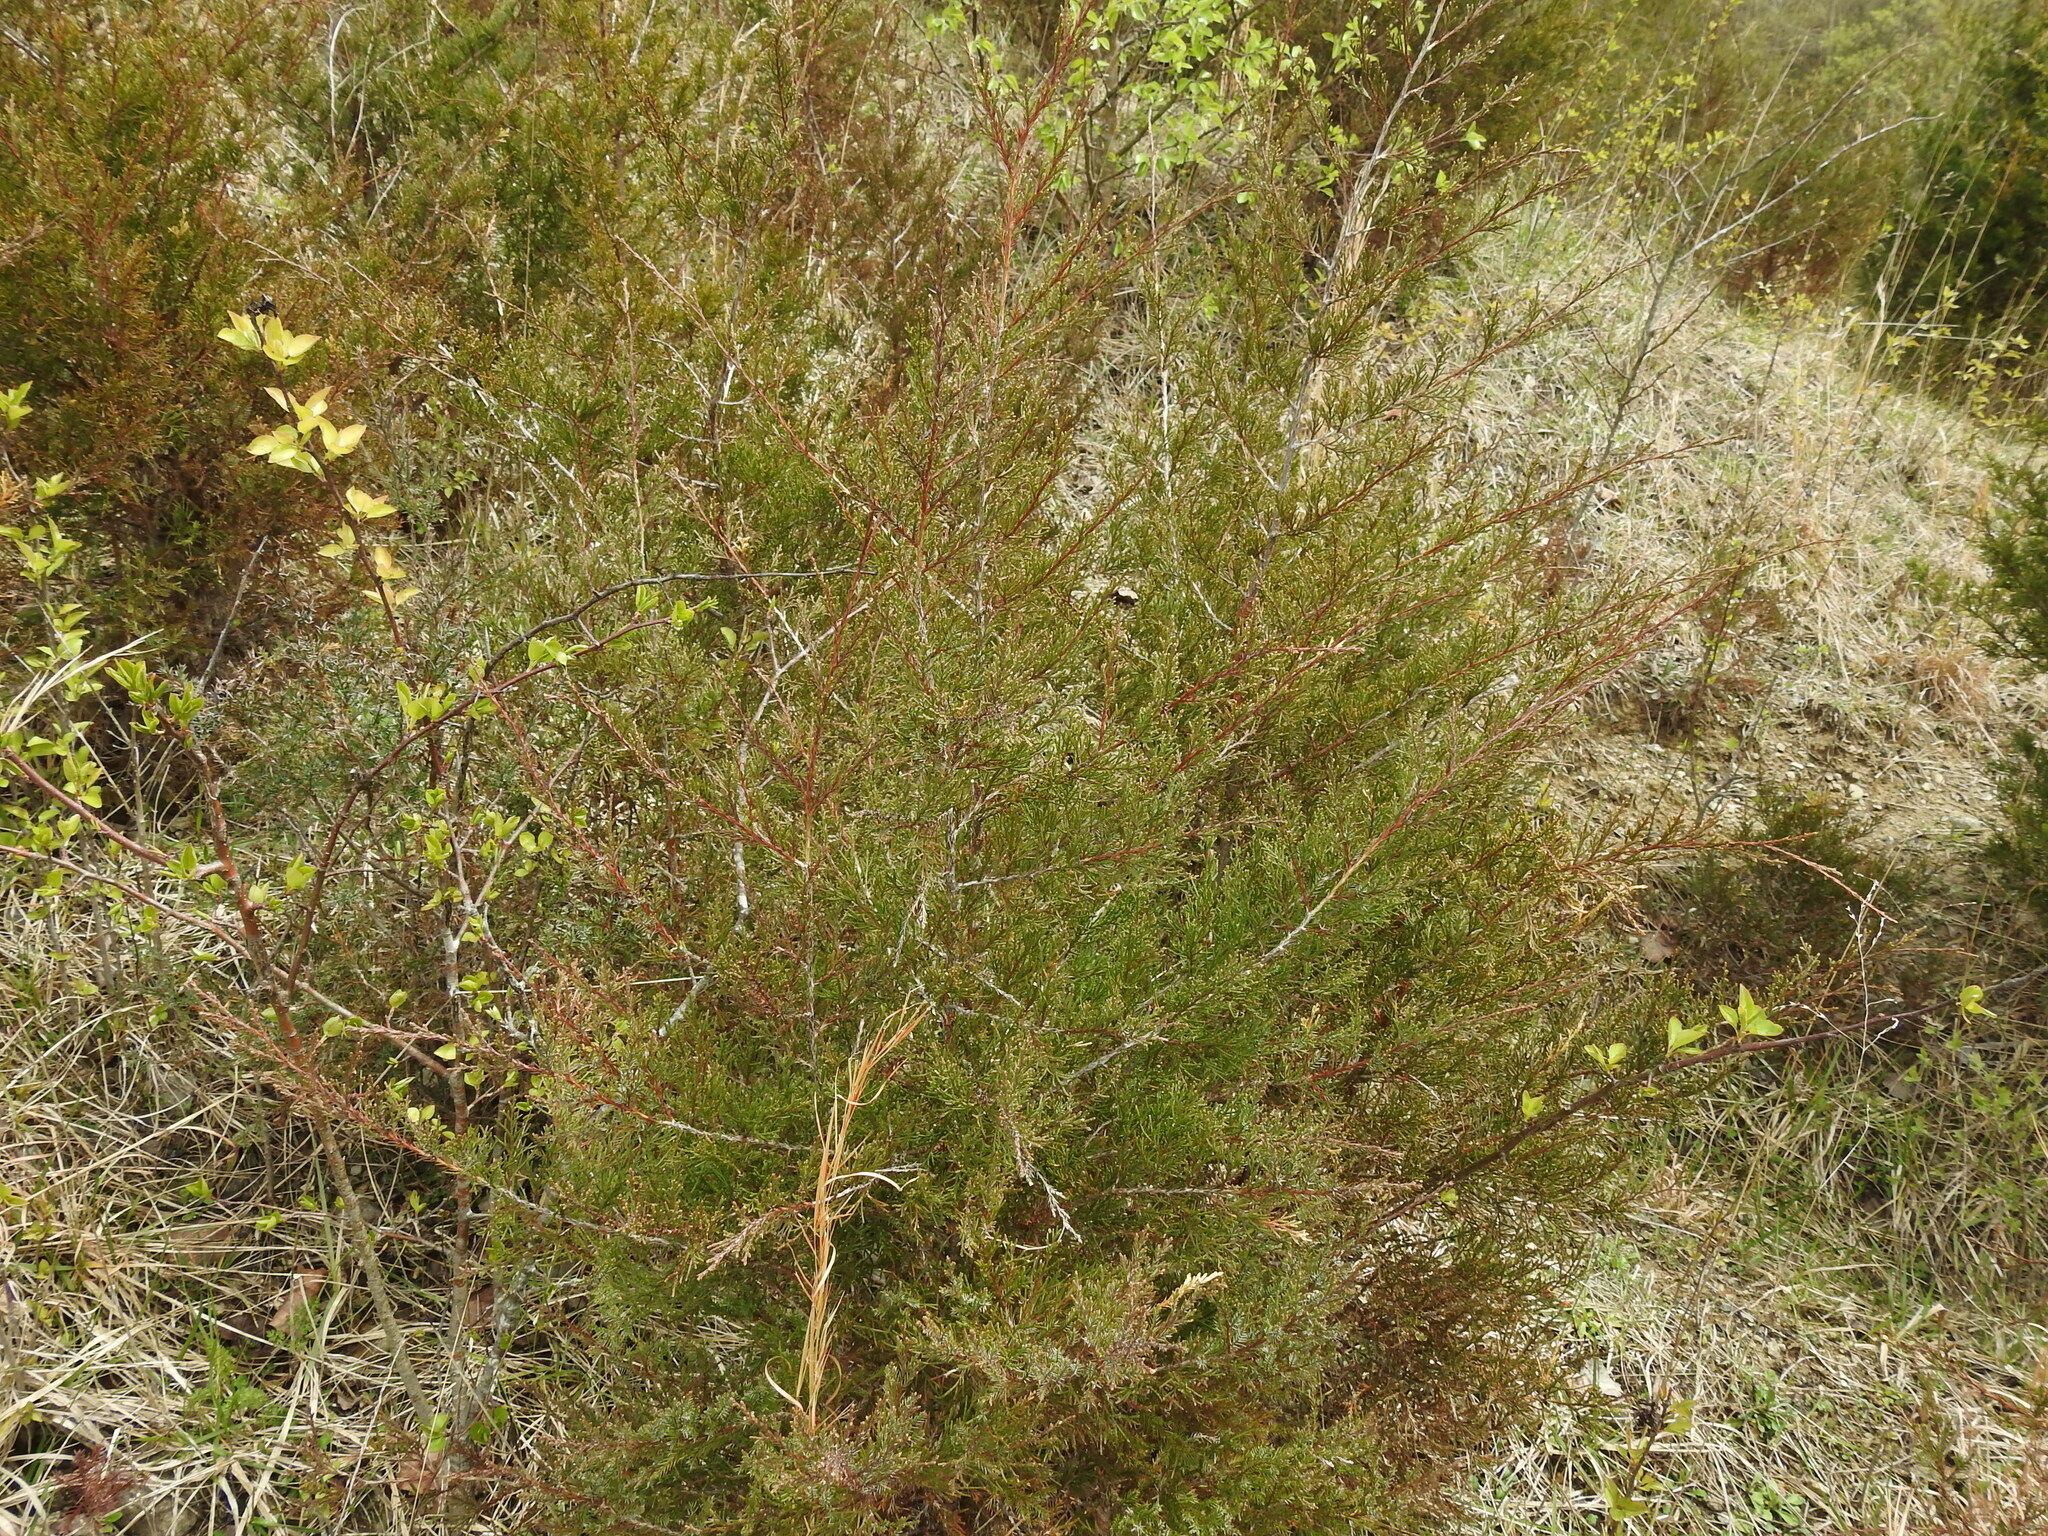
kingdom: Plantae
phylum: Tracheophyta
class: Pinopsida
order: Pinales
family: Cupressaceae
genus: Juniperus
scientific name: Juniperus virginiana
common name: Red juniper
